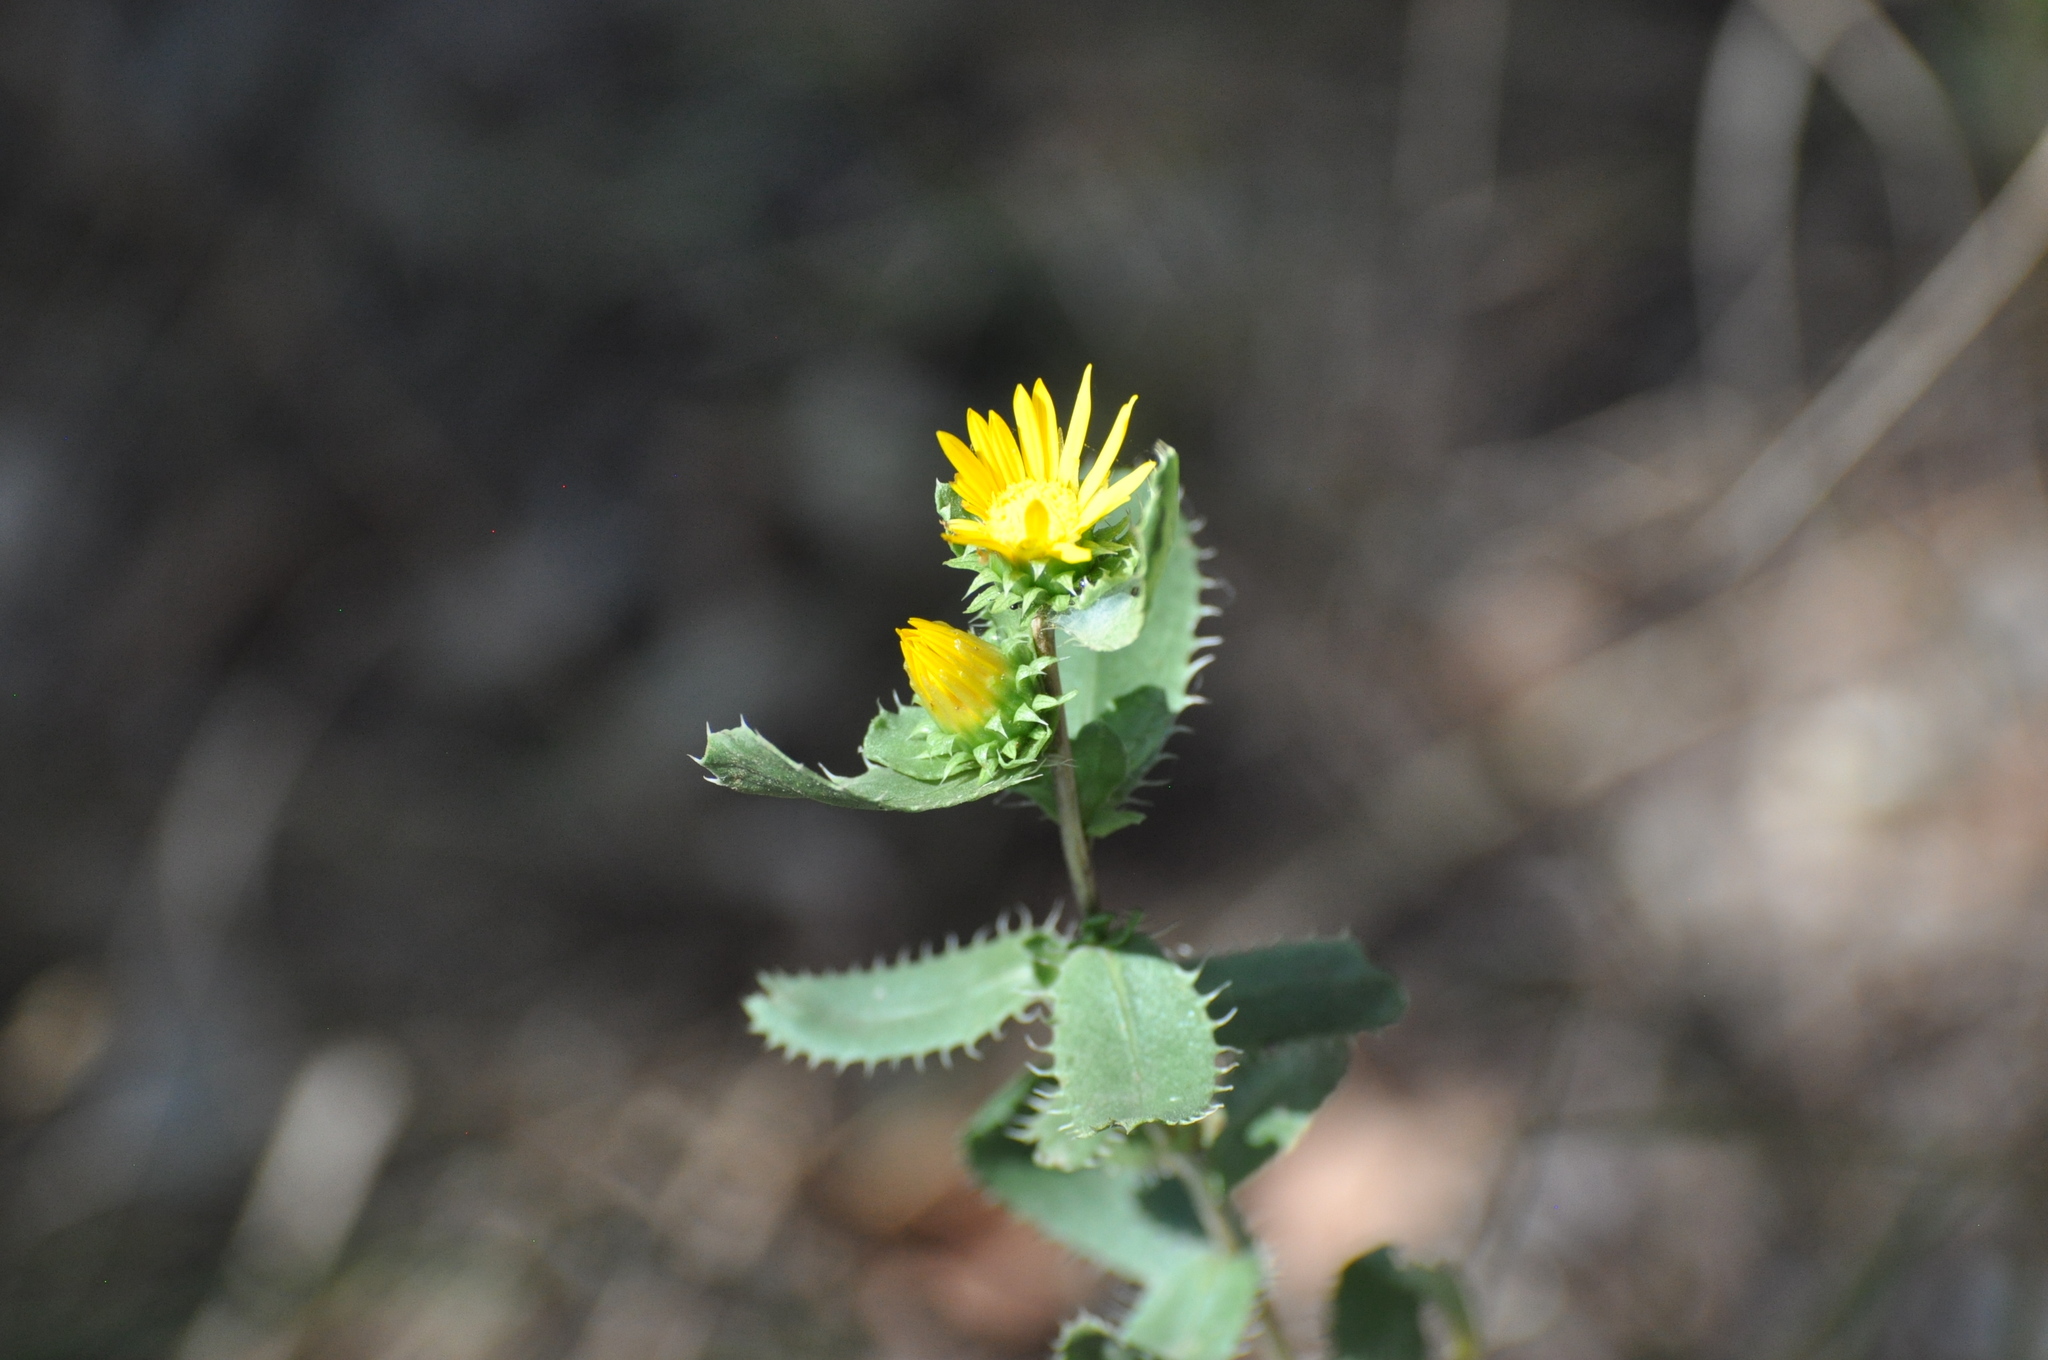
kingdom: Plantae
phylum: Tracheophyta
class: Magnoliopsida
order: Asterales
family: Asteraceae
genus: Grindelia
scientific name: Grindelia ciliata
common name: Goldenweed
